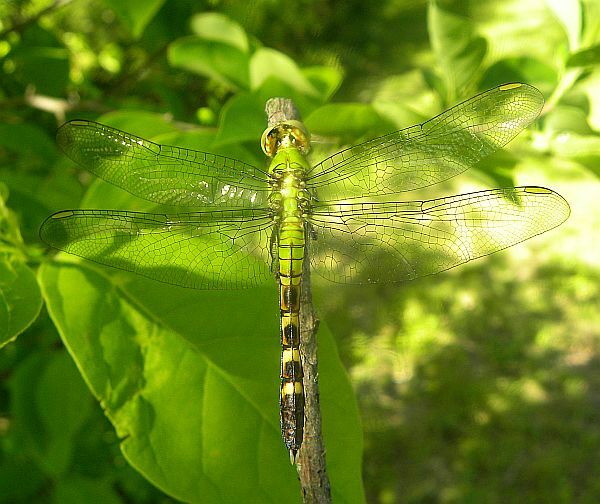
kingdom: Animalia
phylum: Arthropoda
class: Insecta
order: Odonata
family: Libellulidae
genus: Erythemis
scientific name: Erythemis simplicicollis
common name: Eastern pondhawk
